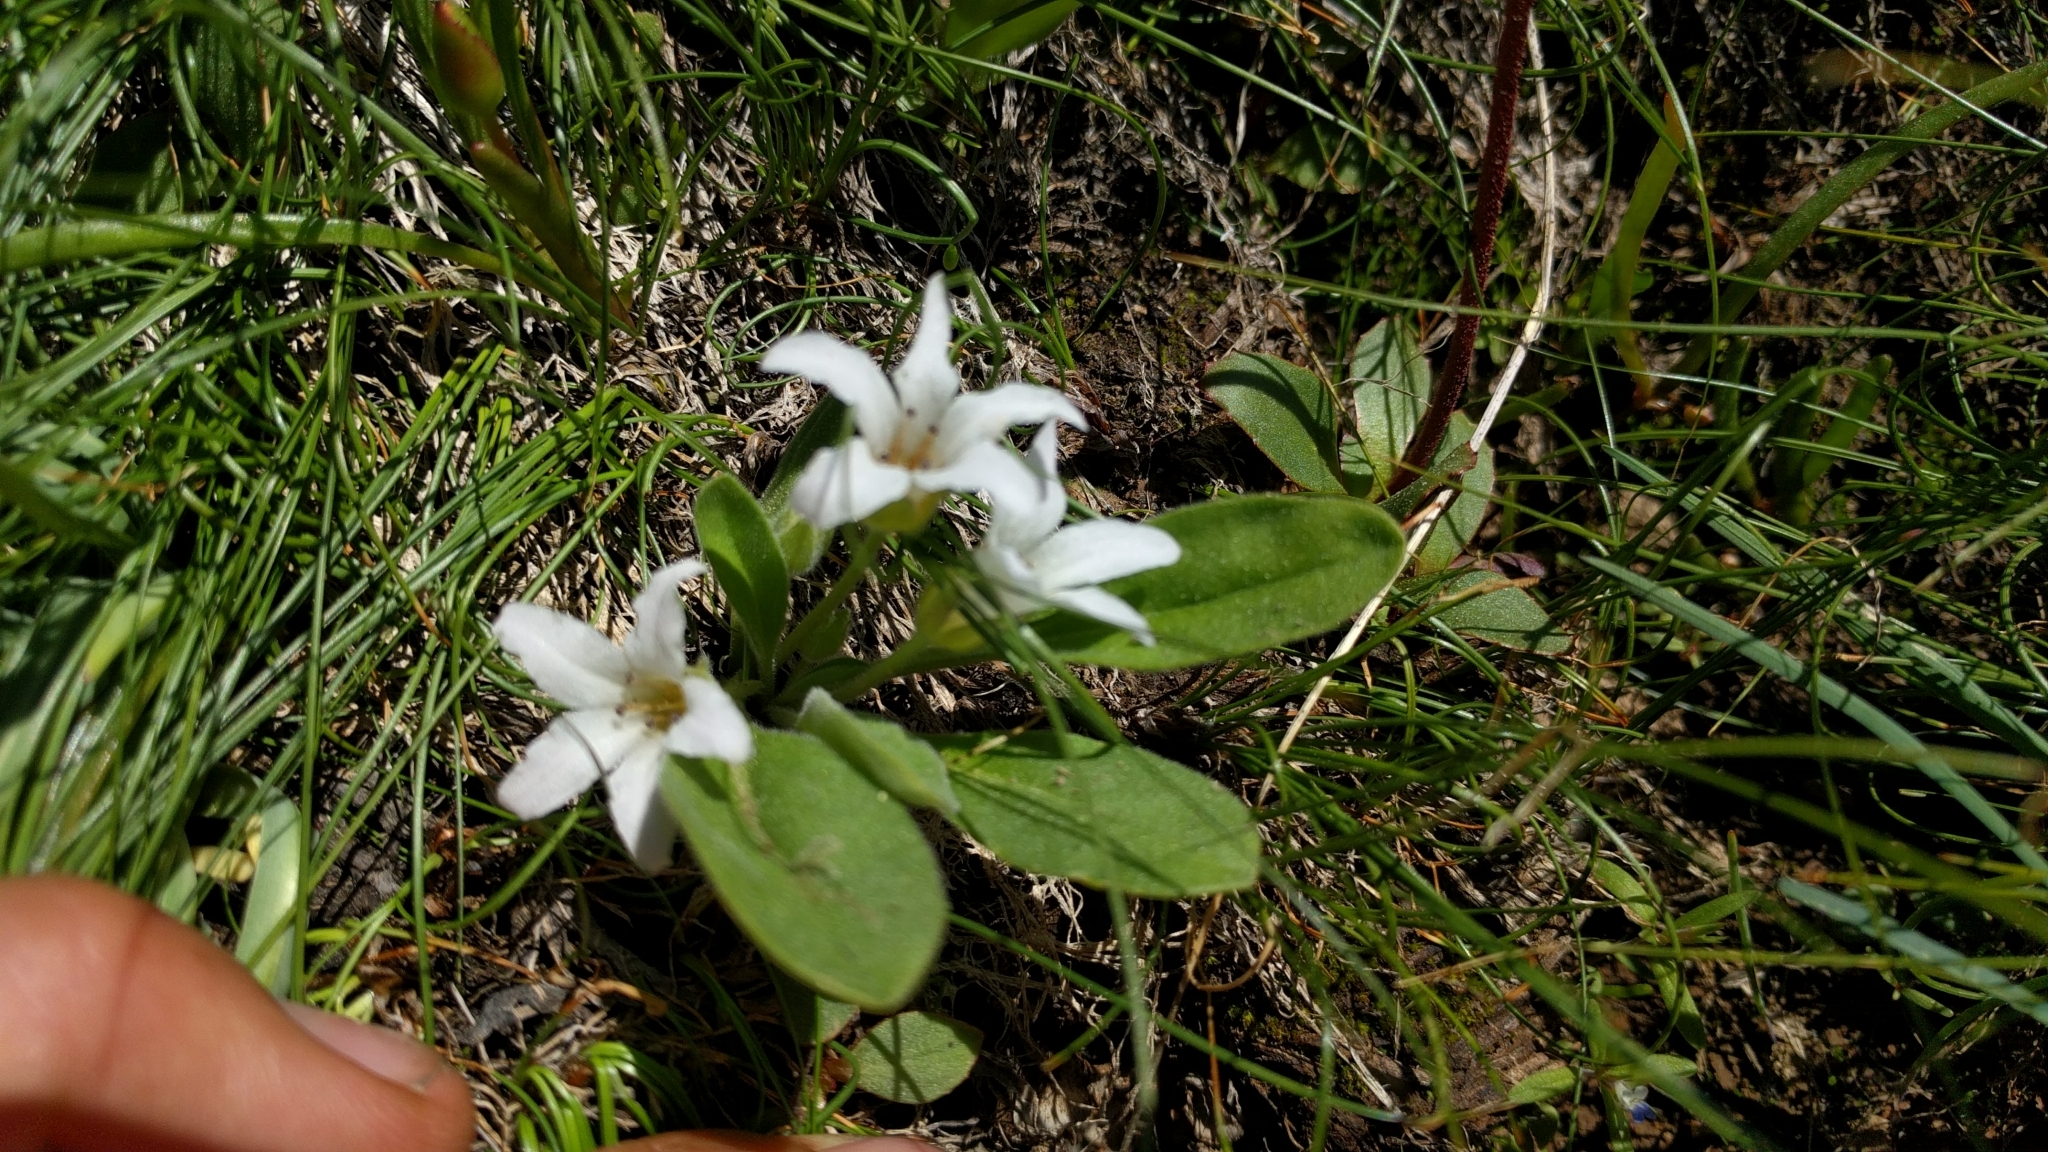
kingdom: Plantae
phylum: Tracheophyta
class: Magnoliopsida
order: Boraginales
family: Hydrophyllaceae
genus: Hesperochiron
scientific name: Hesperochiron californicus
